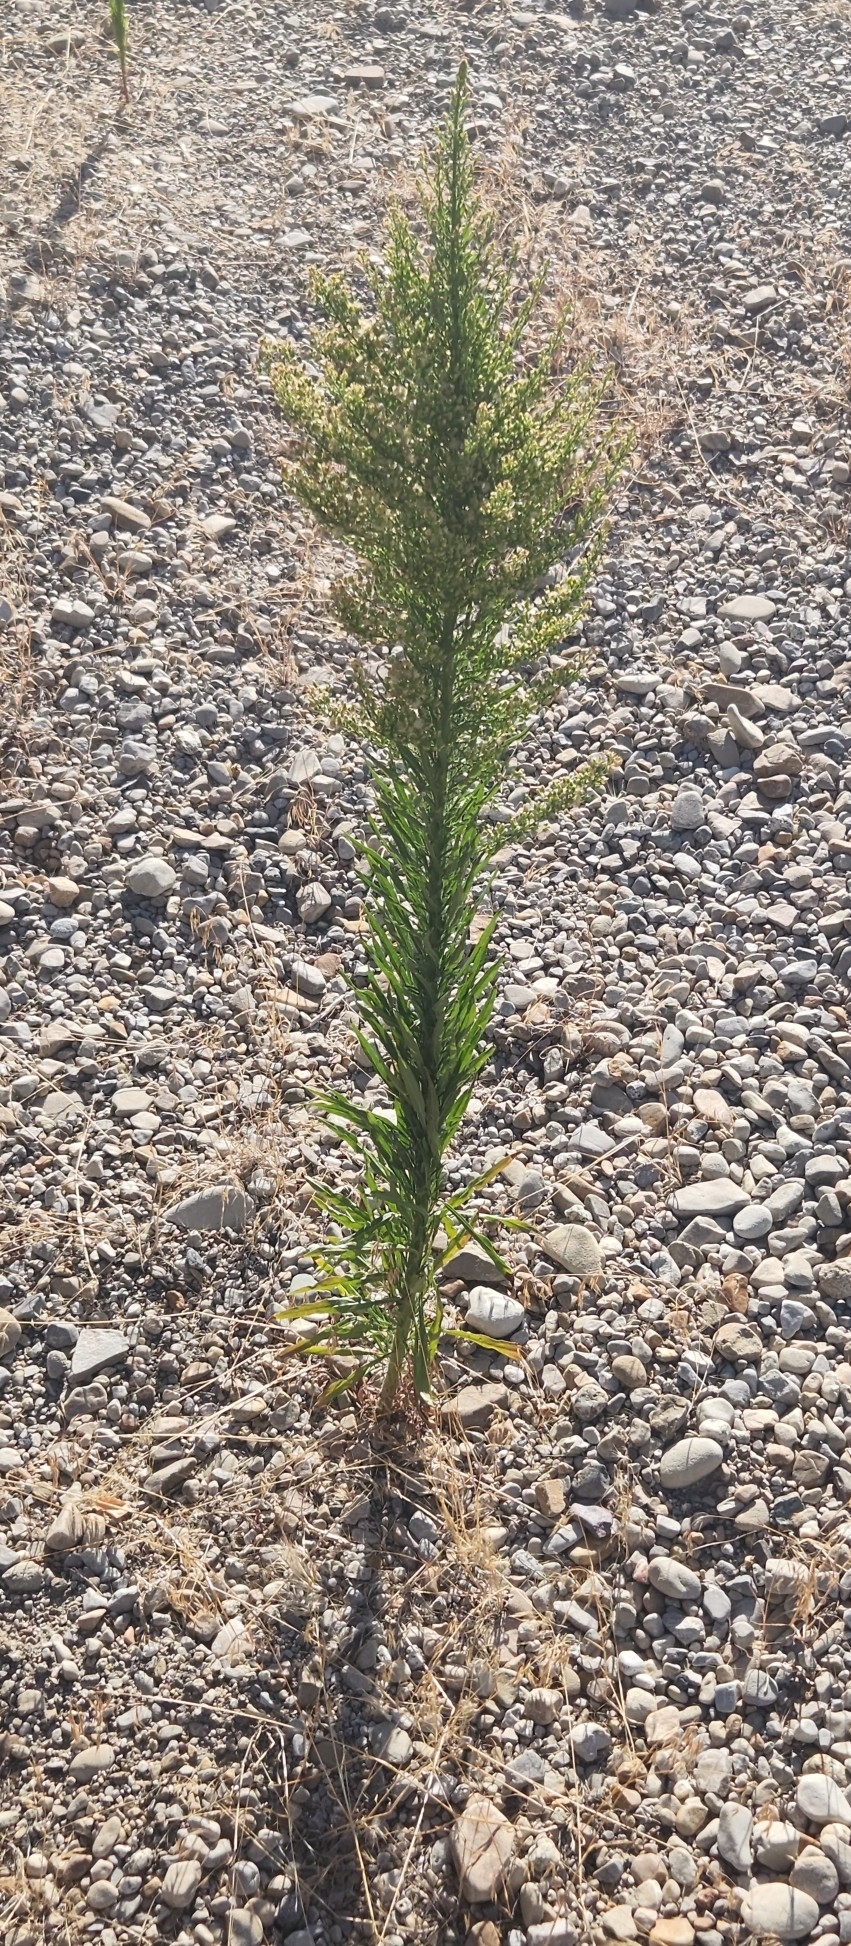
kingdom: Plantae
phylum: Tracheophyta
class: Magnoliopsida
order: Asterales
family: Asteraceae
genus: Erigeron
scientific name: Erigeron canadensis
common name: Canadian fleabane
